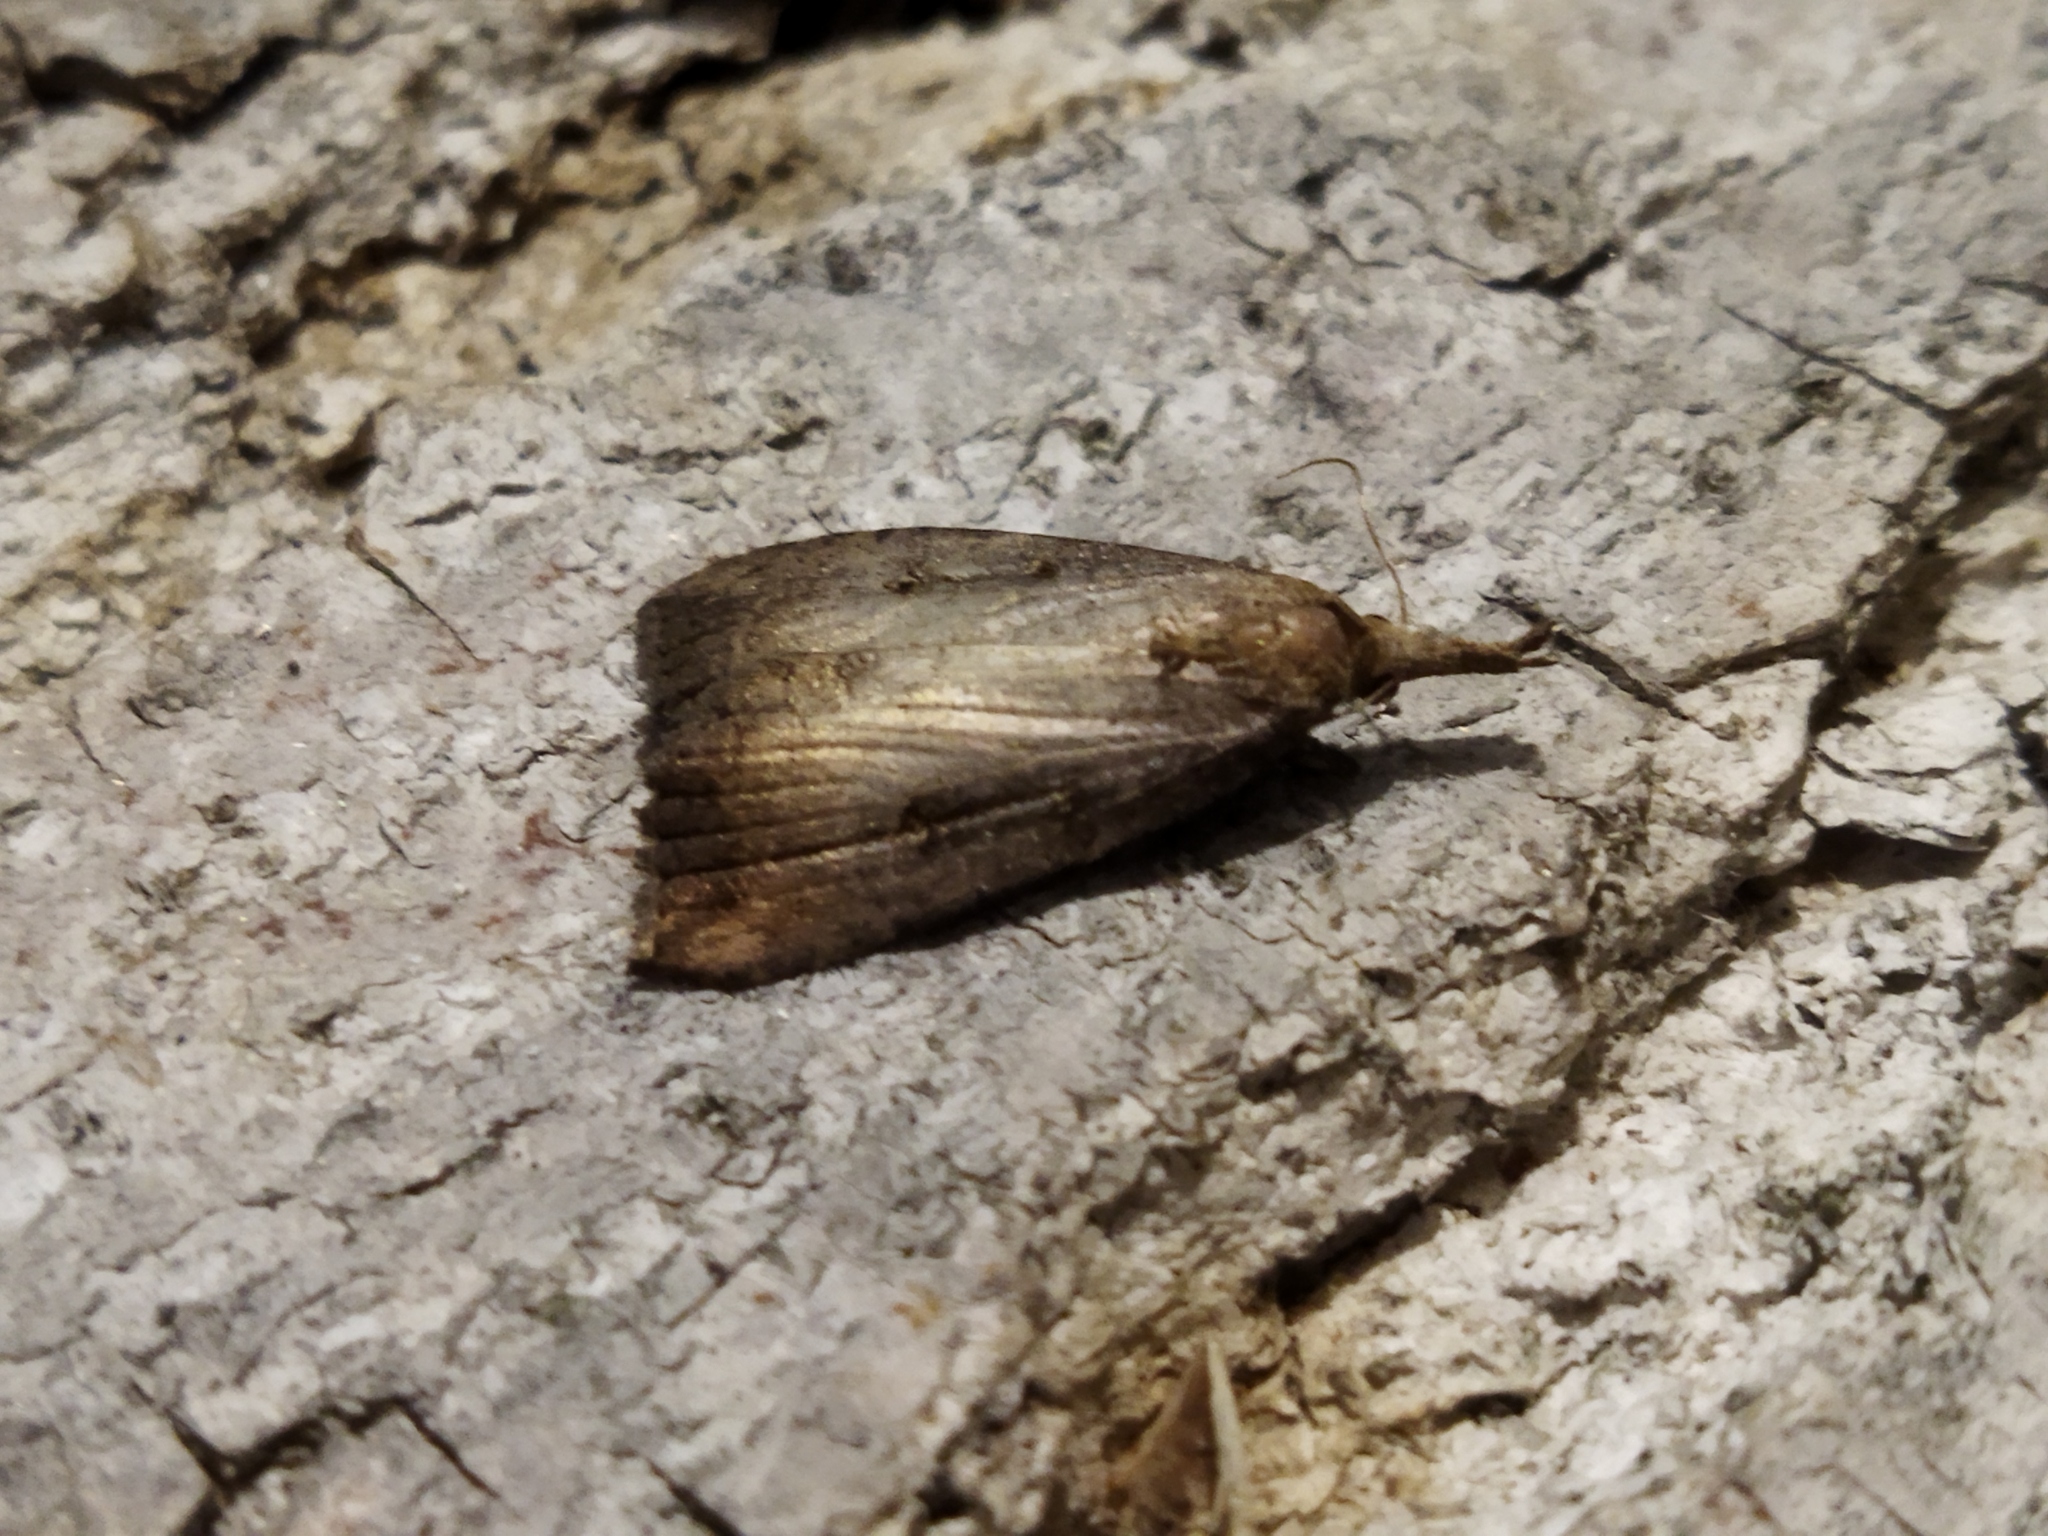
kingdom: Animalia
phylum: Arthropoda
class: Insecta
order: Lepidoptera
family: Erebidae
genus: Hypena
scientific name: Hypena rostralis
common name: Buttoned snout
